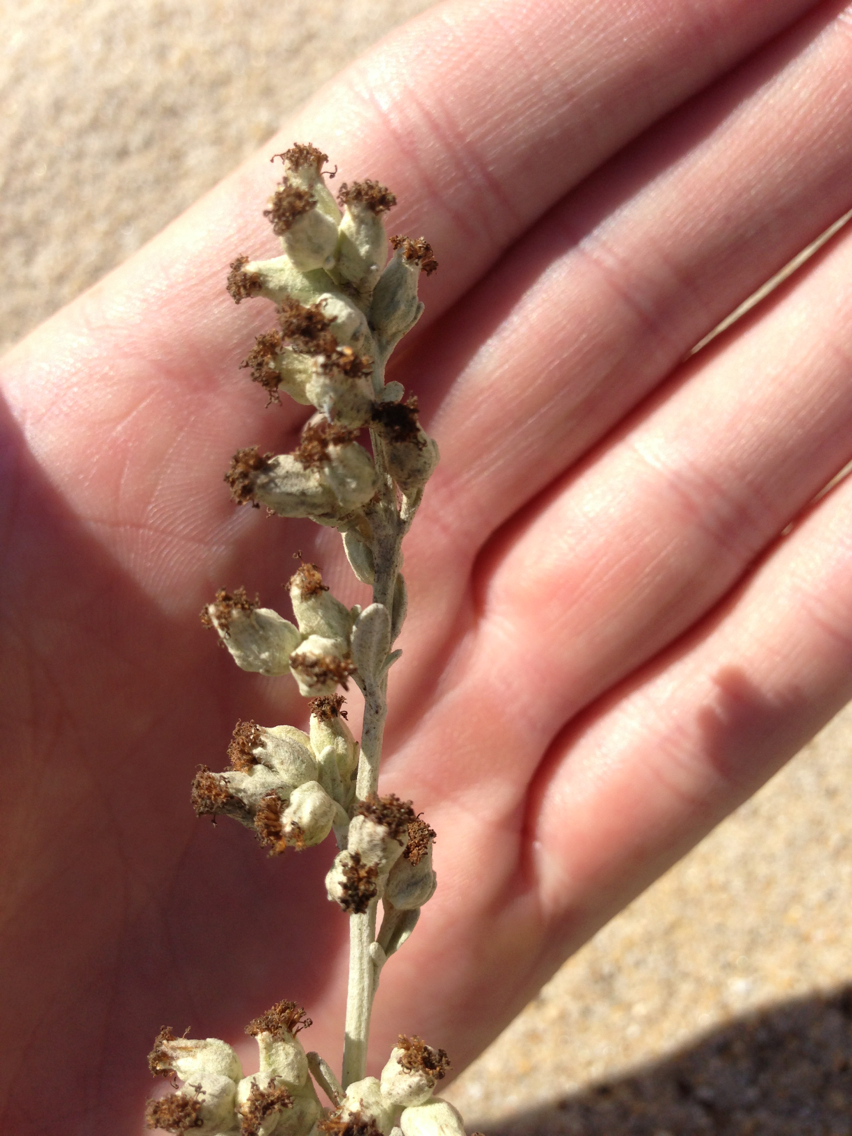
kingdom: Plantae
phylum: Tracheophyta
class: Magnoliopsida
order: Asterales
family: Asteraceae
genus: Artemisia
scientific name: Artemisia stelleriana
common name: Beach wormwood
